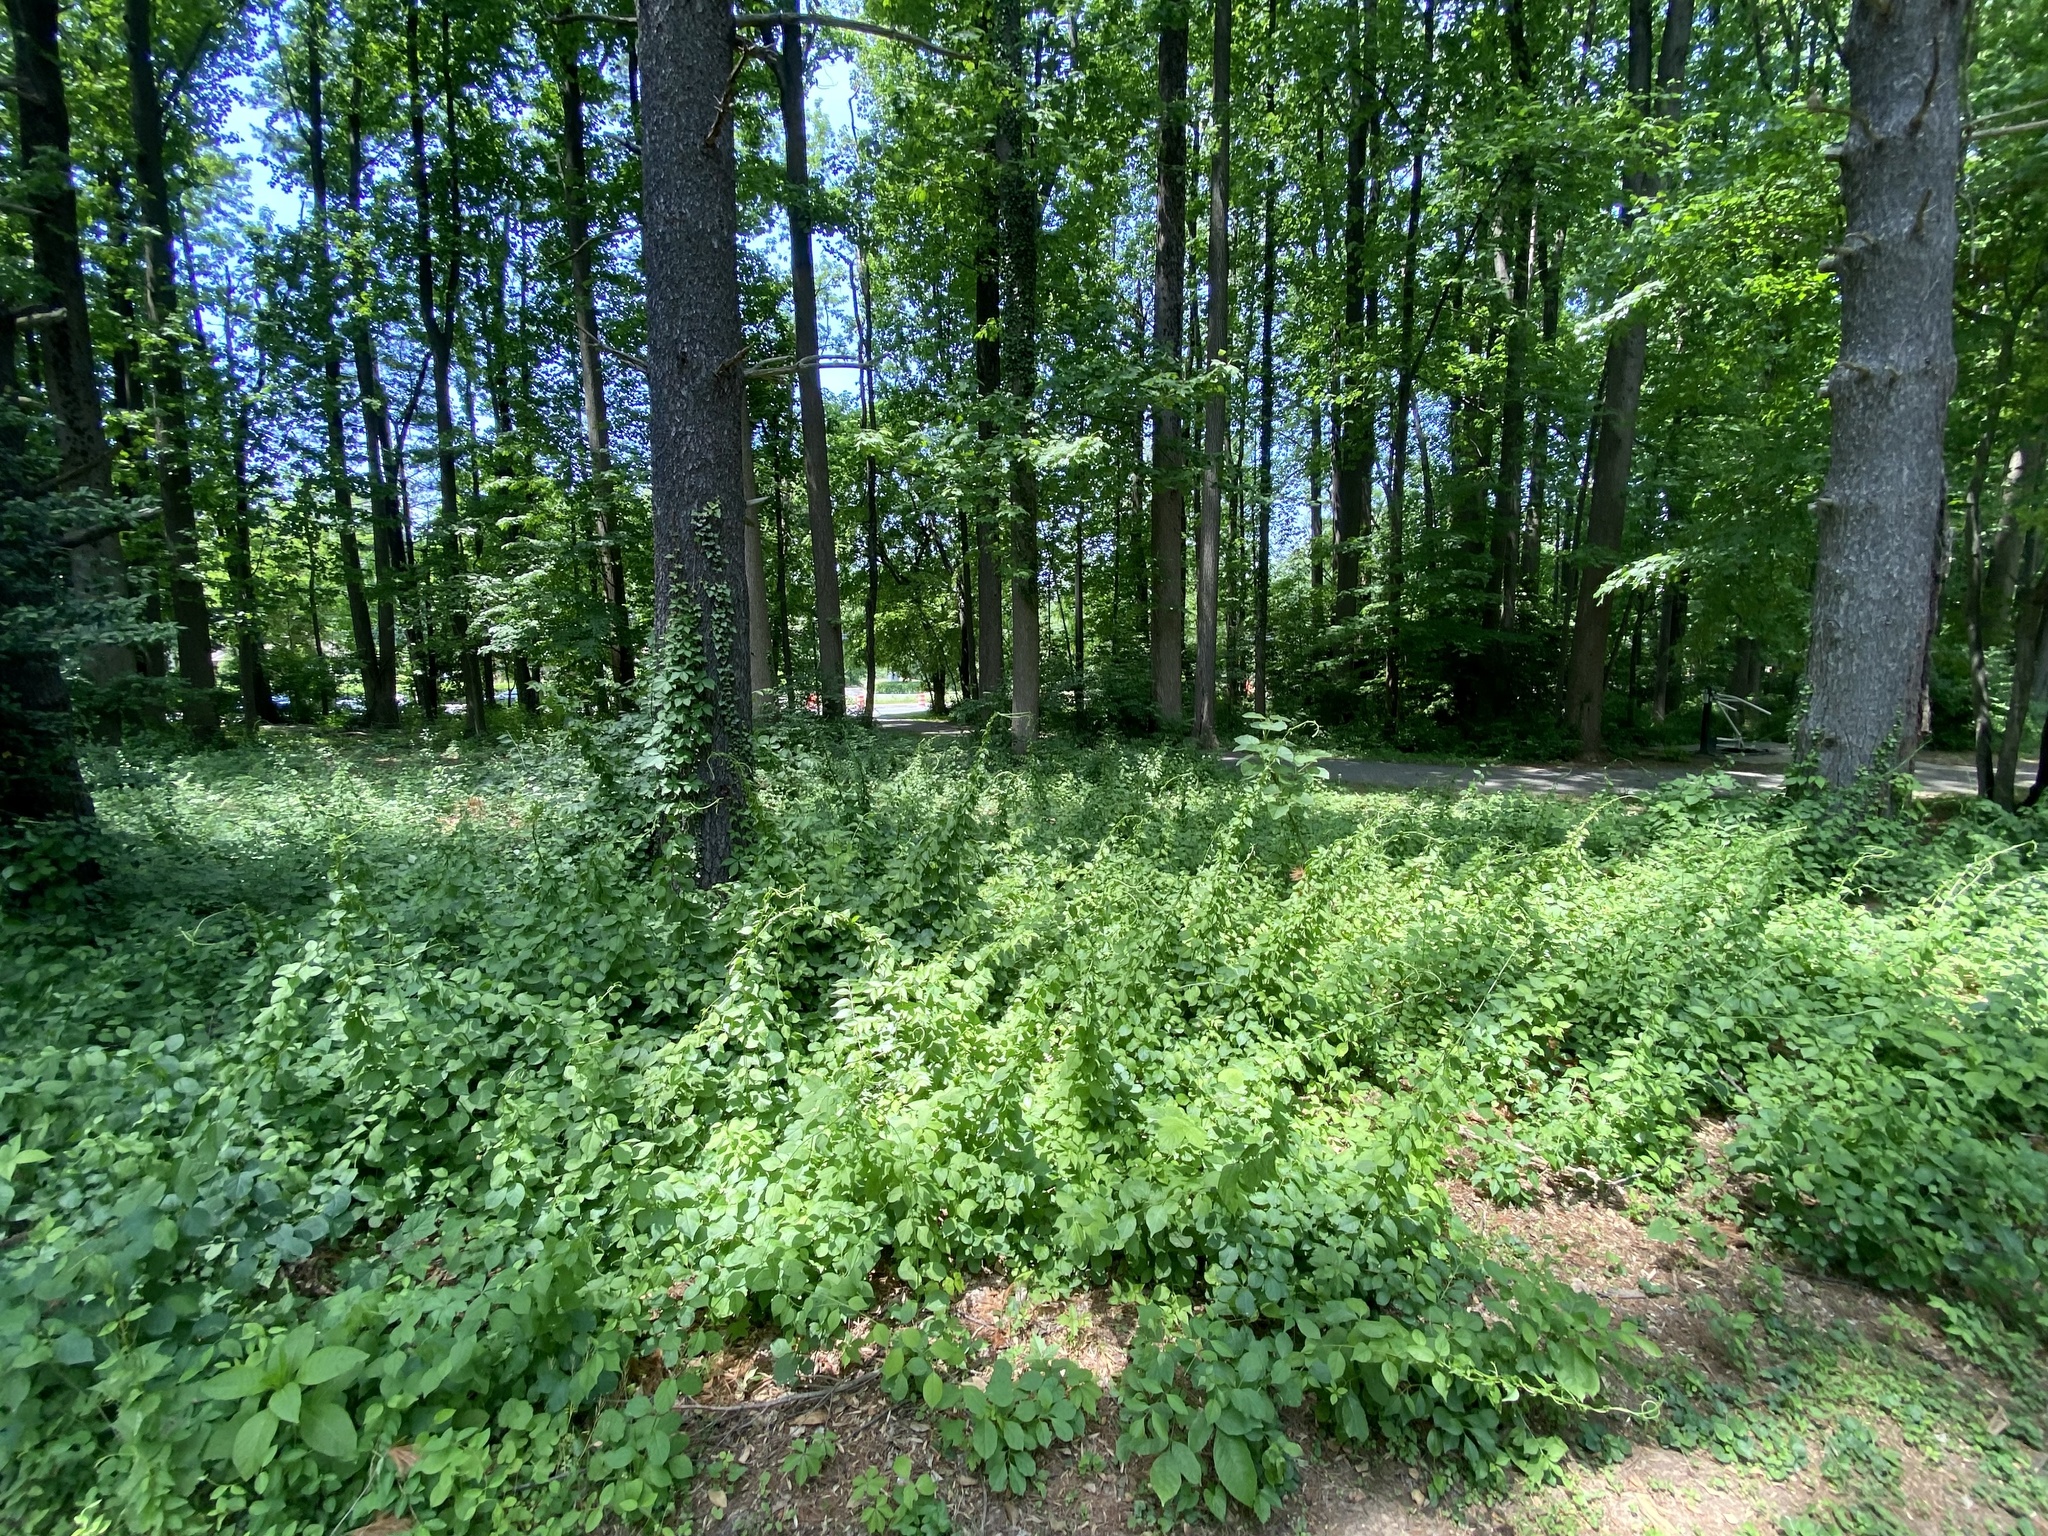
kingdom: Plantae
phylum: Tracheophyta
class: Magnoliopsida
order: Celastrales
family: Celastraceae
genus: Celastrus
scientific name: Celastrus orbiculatus
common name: Oriental bittersweet
